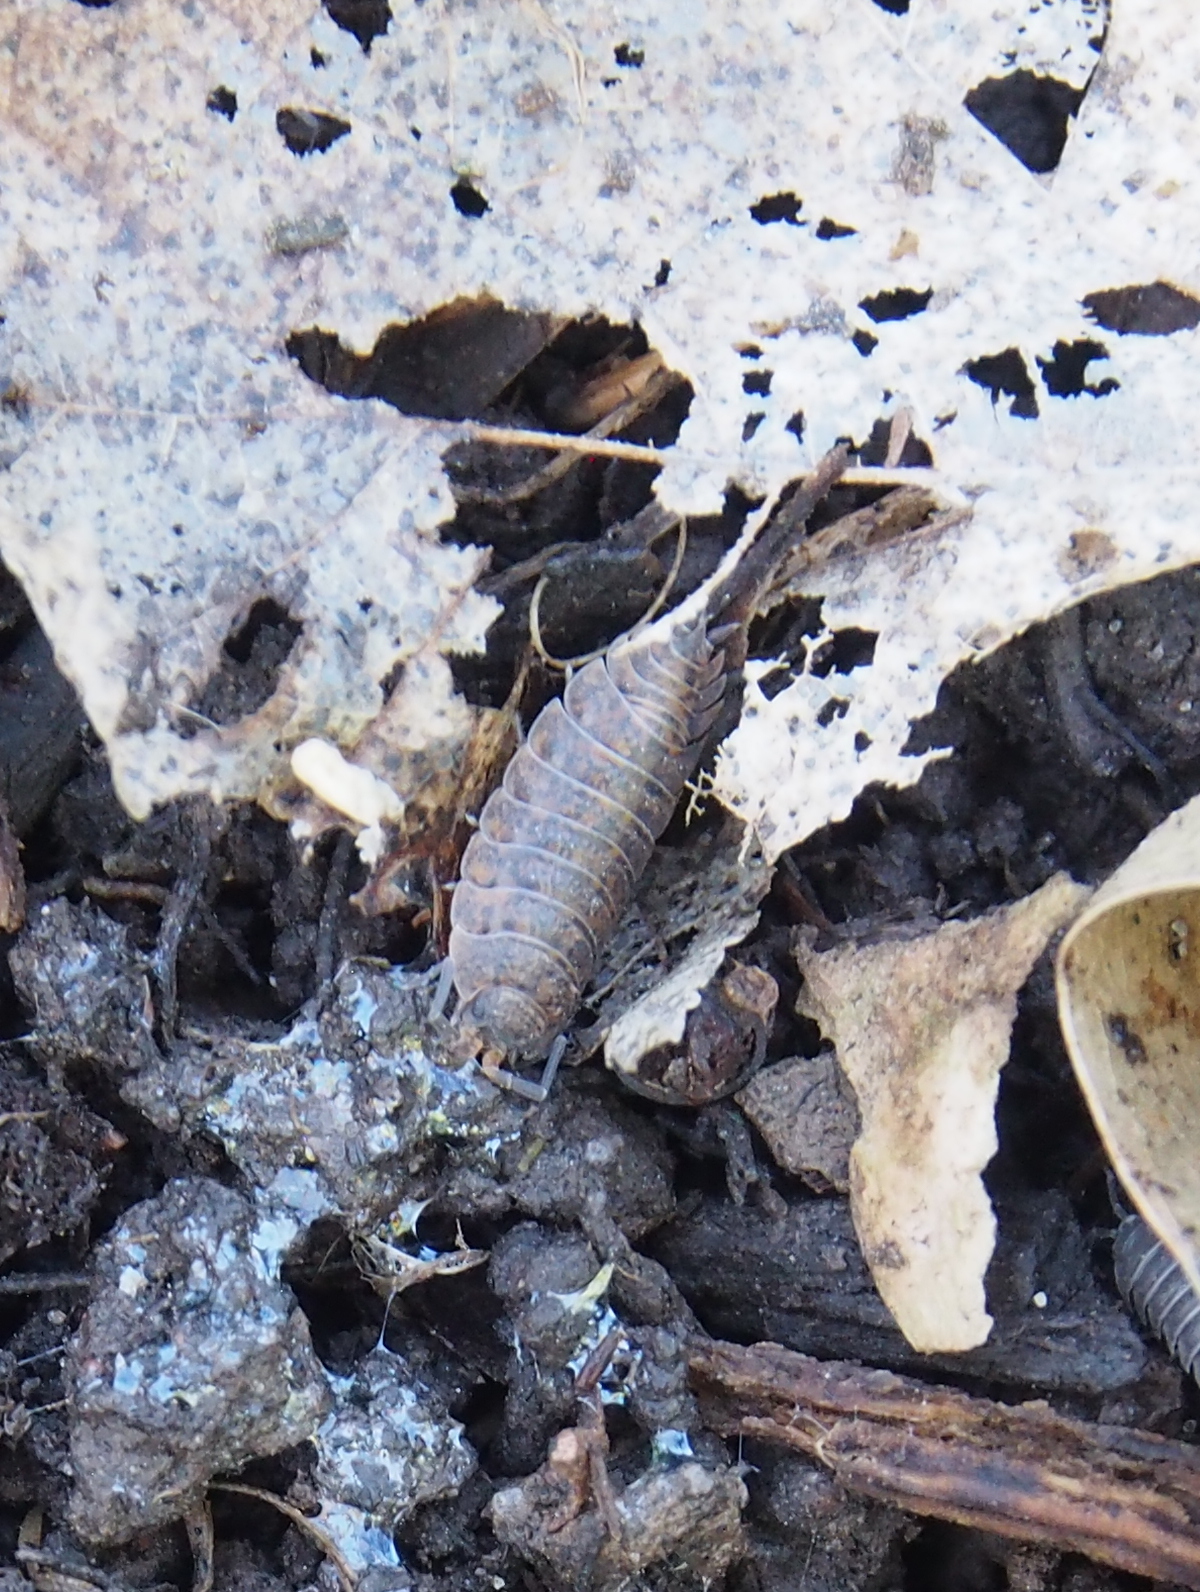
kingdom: Animalia
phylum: Arthropoda
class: Malacostraca
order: Isopoda
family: Porcellionidae
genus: Porcellio
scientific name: Porcellio scaber
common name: Common rough woodlouse
